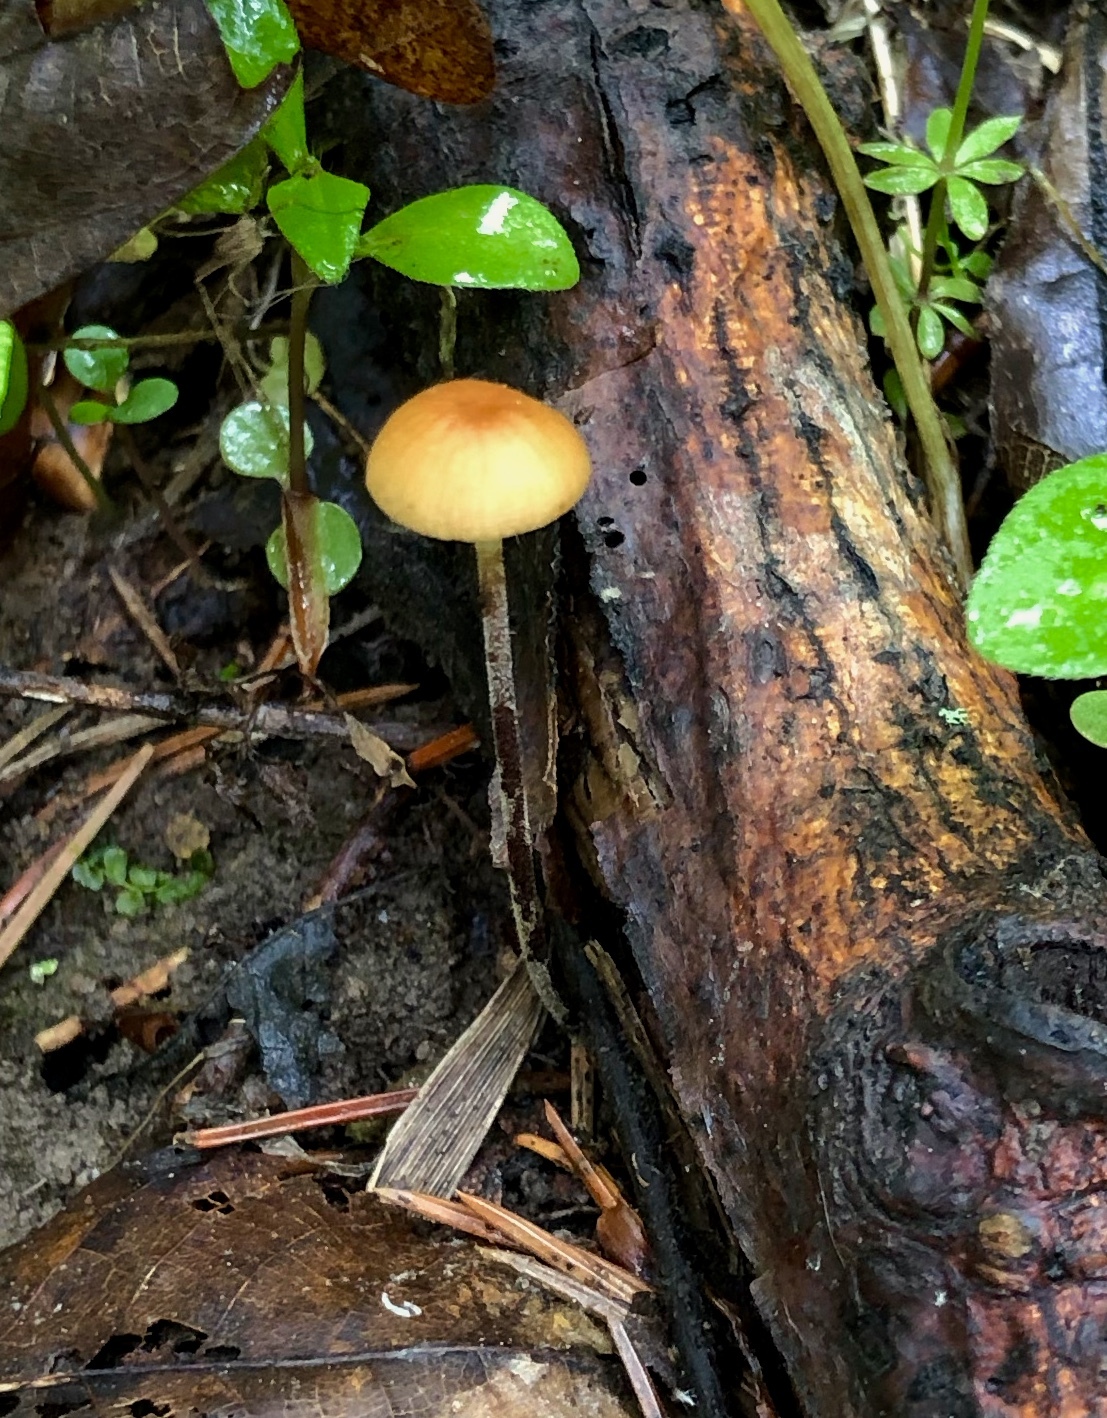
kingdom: Fungi
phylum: Basidiomycota
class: Agaricomycetes
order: Agaricales
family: Physalacriaceae
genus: Rhizomarasmius
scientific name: Rhizomarasmius pyrrhocephalus
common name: Hairy long stem marasmius
